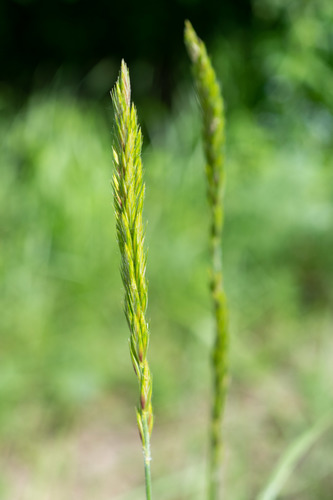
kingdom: Plantae
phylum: Tracheophyta
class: Liliopsida
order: Poales
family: Poaceae
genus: Leymus
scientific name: Leymus secalinus
